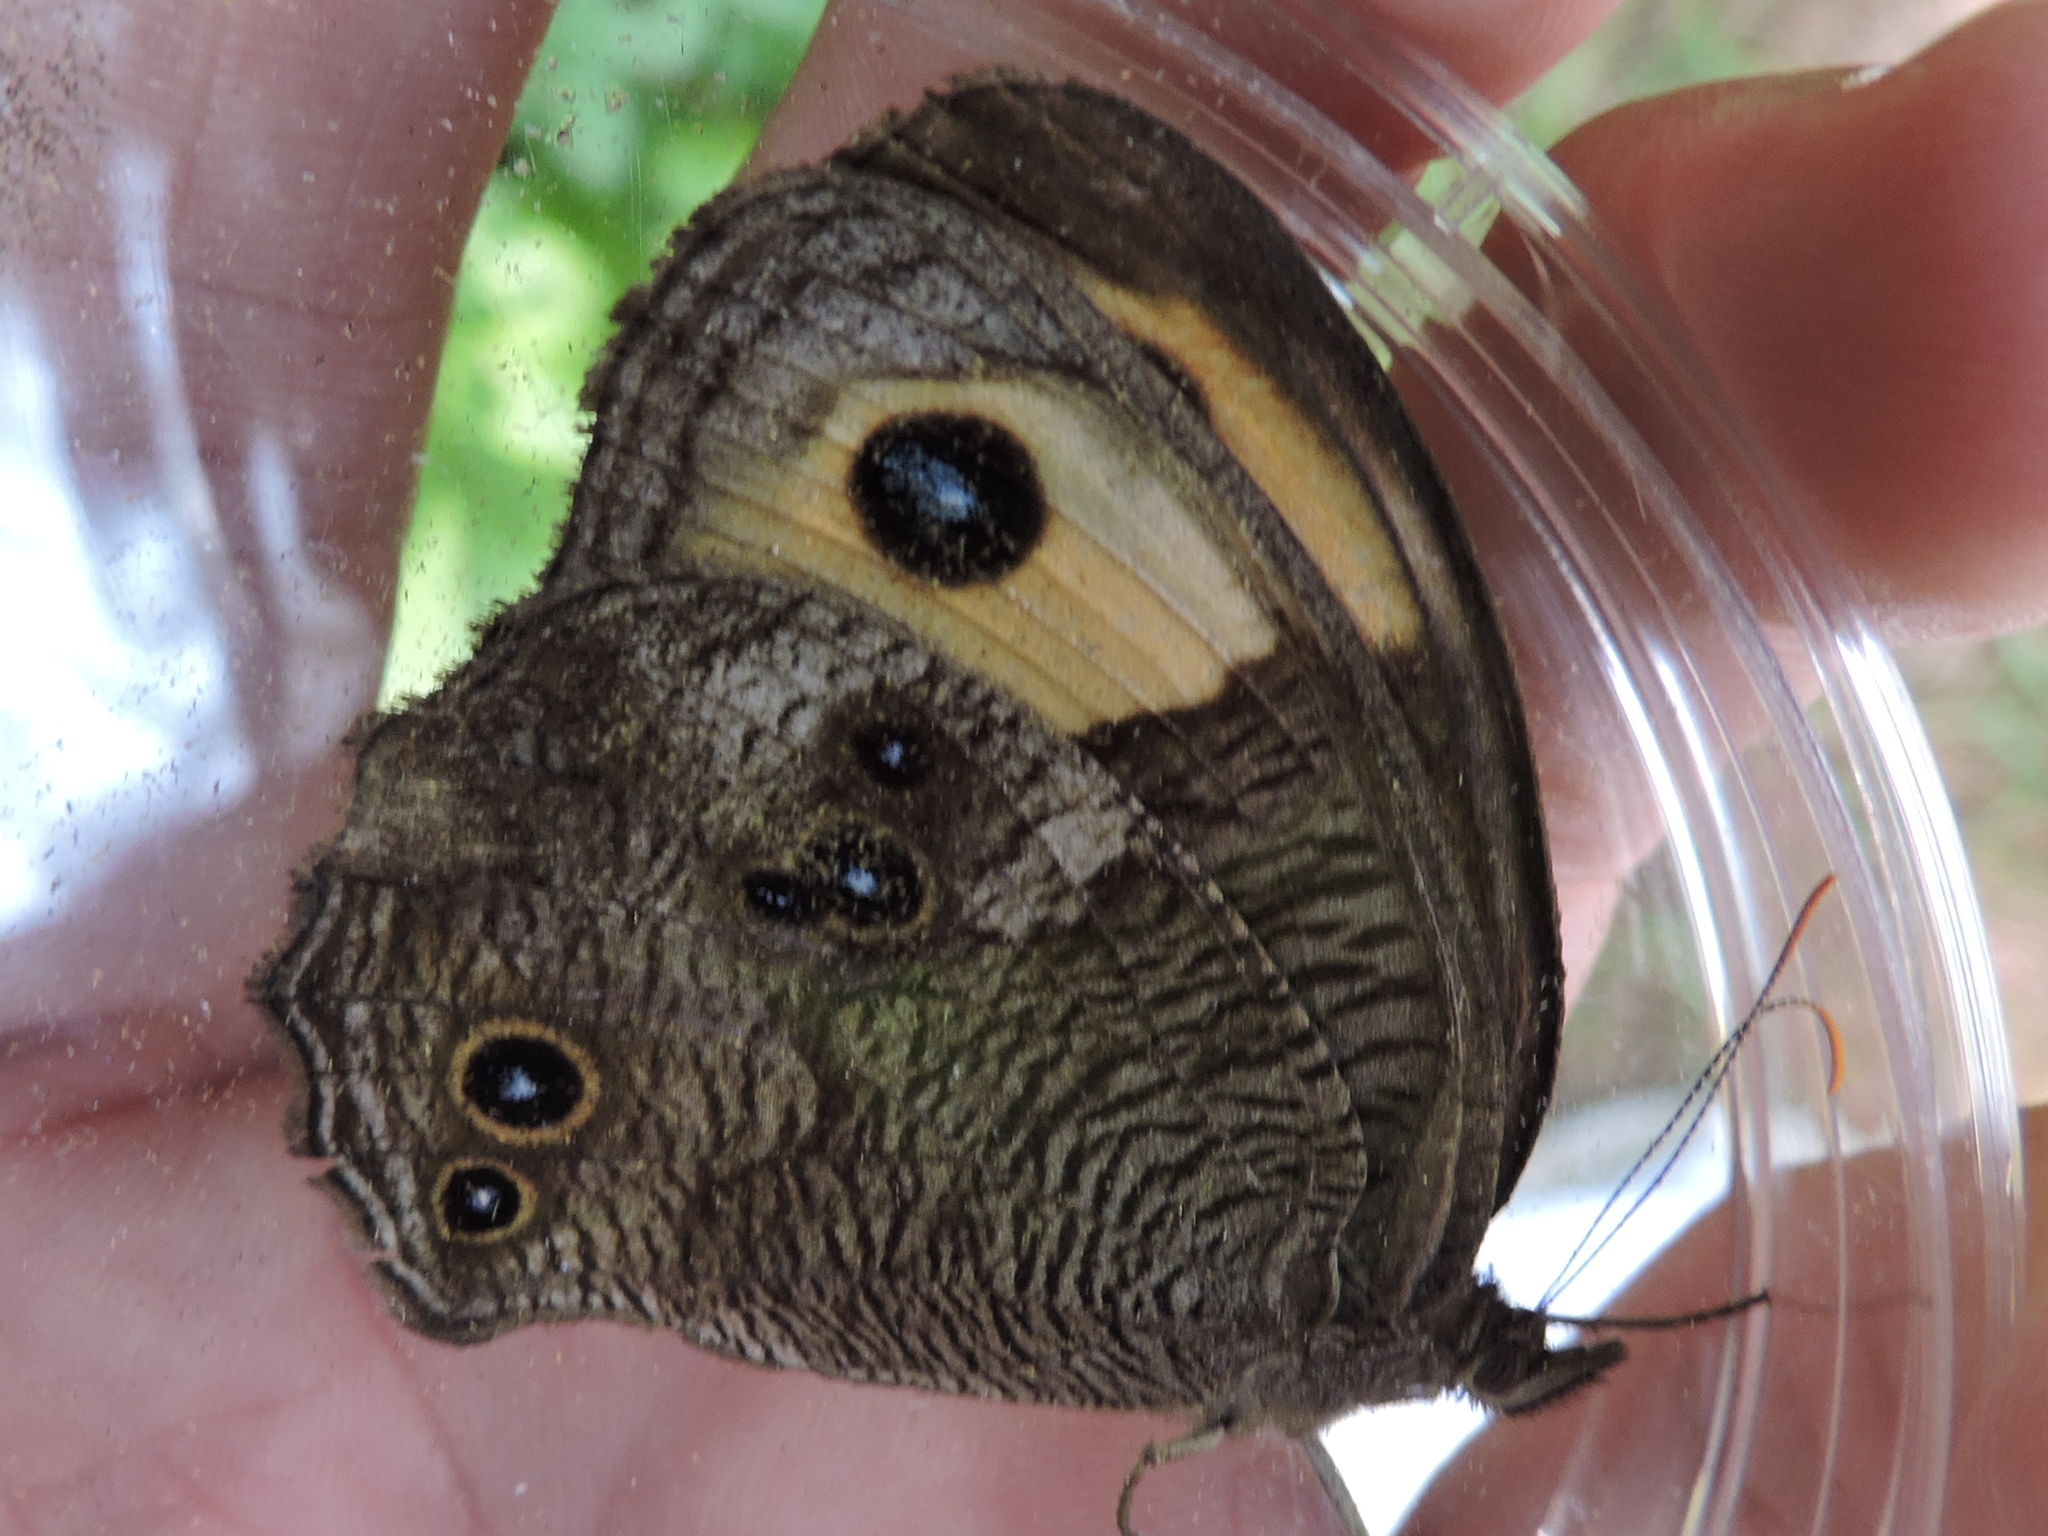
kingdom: Animalia
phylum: Arthropoda
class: Insecta
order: Lepidoptera
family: Nymphalidae
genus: Cercyonis
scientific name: Cercyonis pegala
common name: Common wood-nymph
